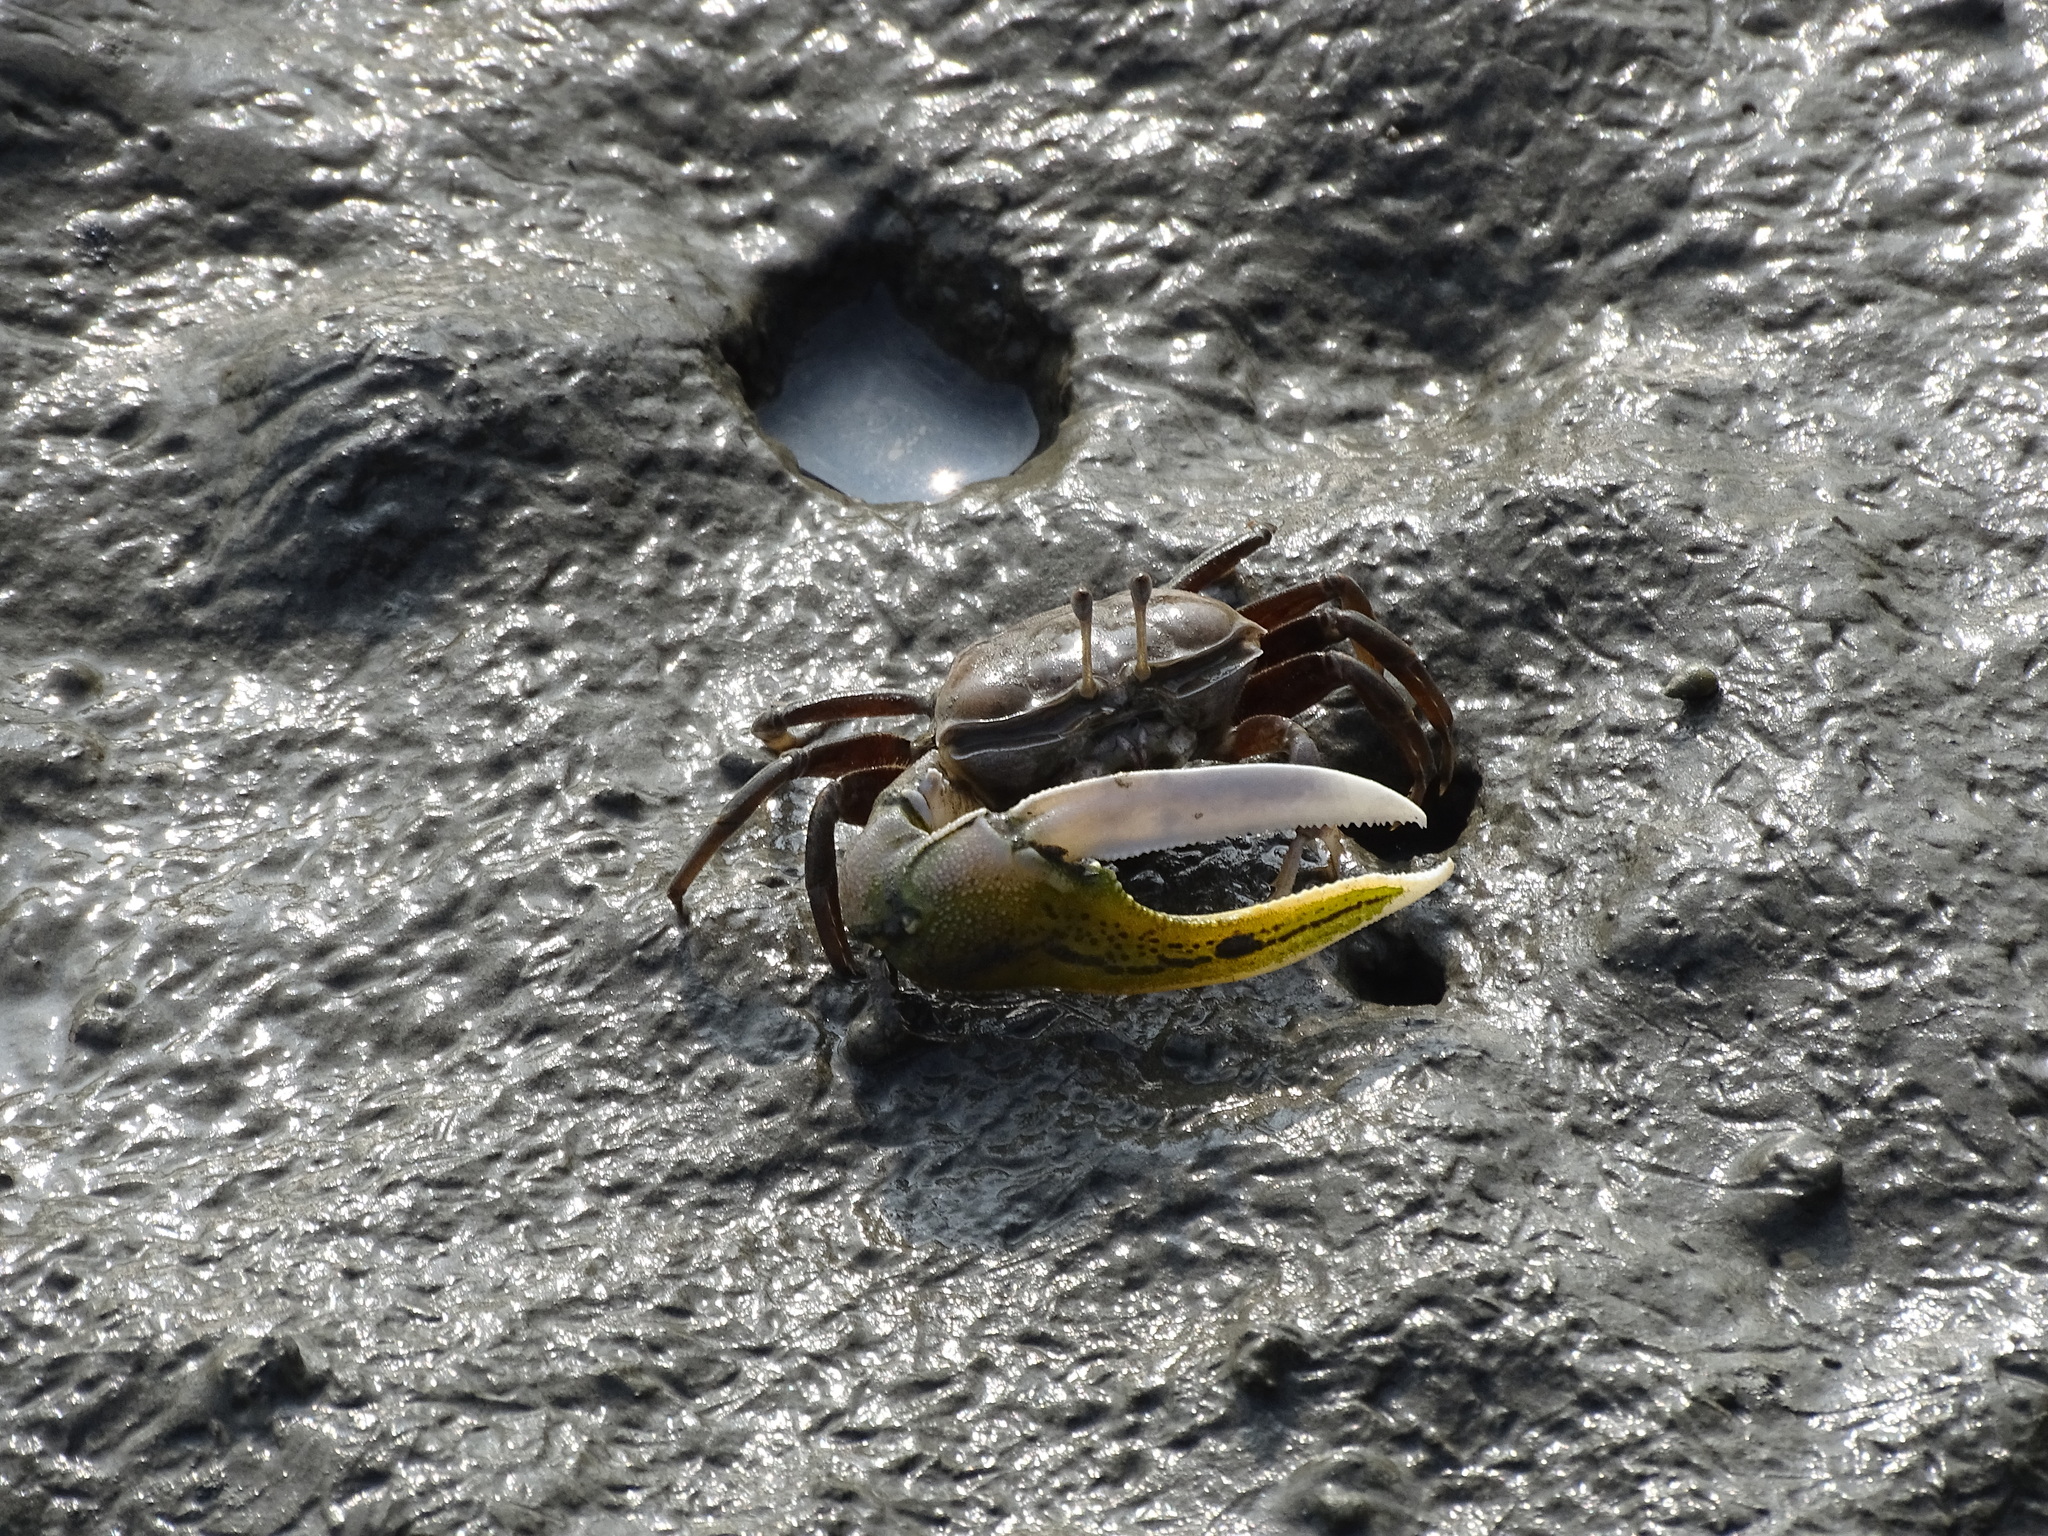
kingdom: Animalia
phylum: Arthropoda
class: Malacostraca
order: Decapoda
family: Ocypodidae
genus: Gelasimus
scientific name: Gelasimus borealis
